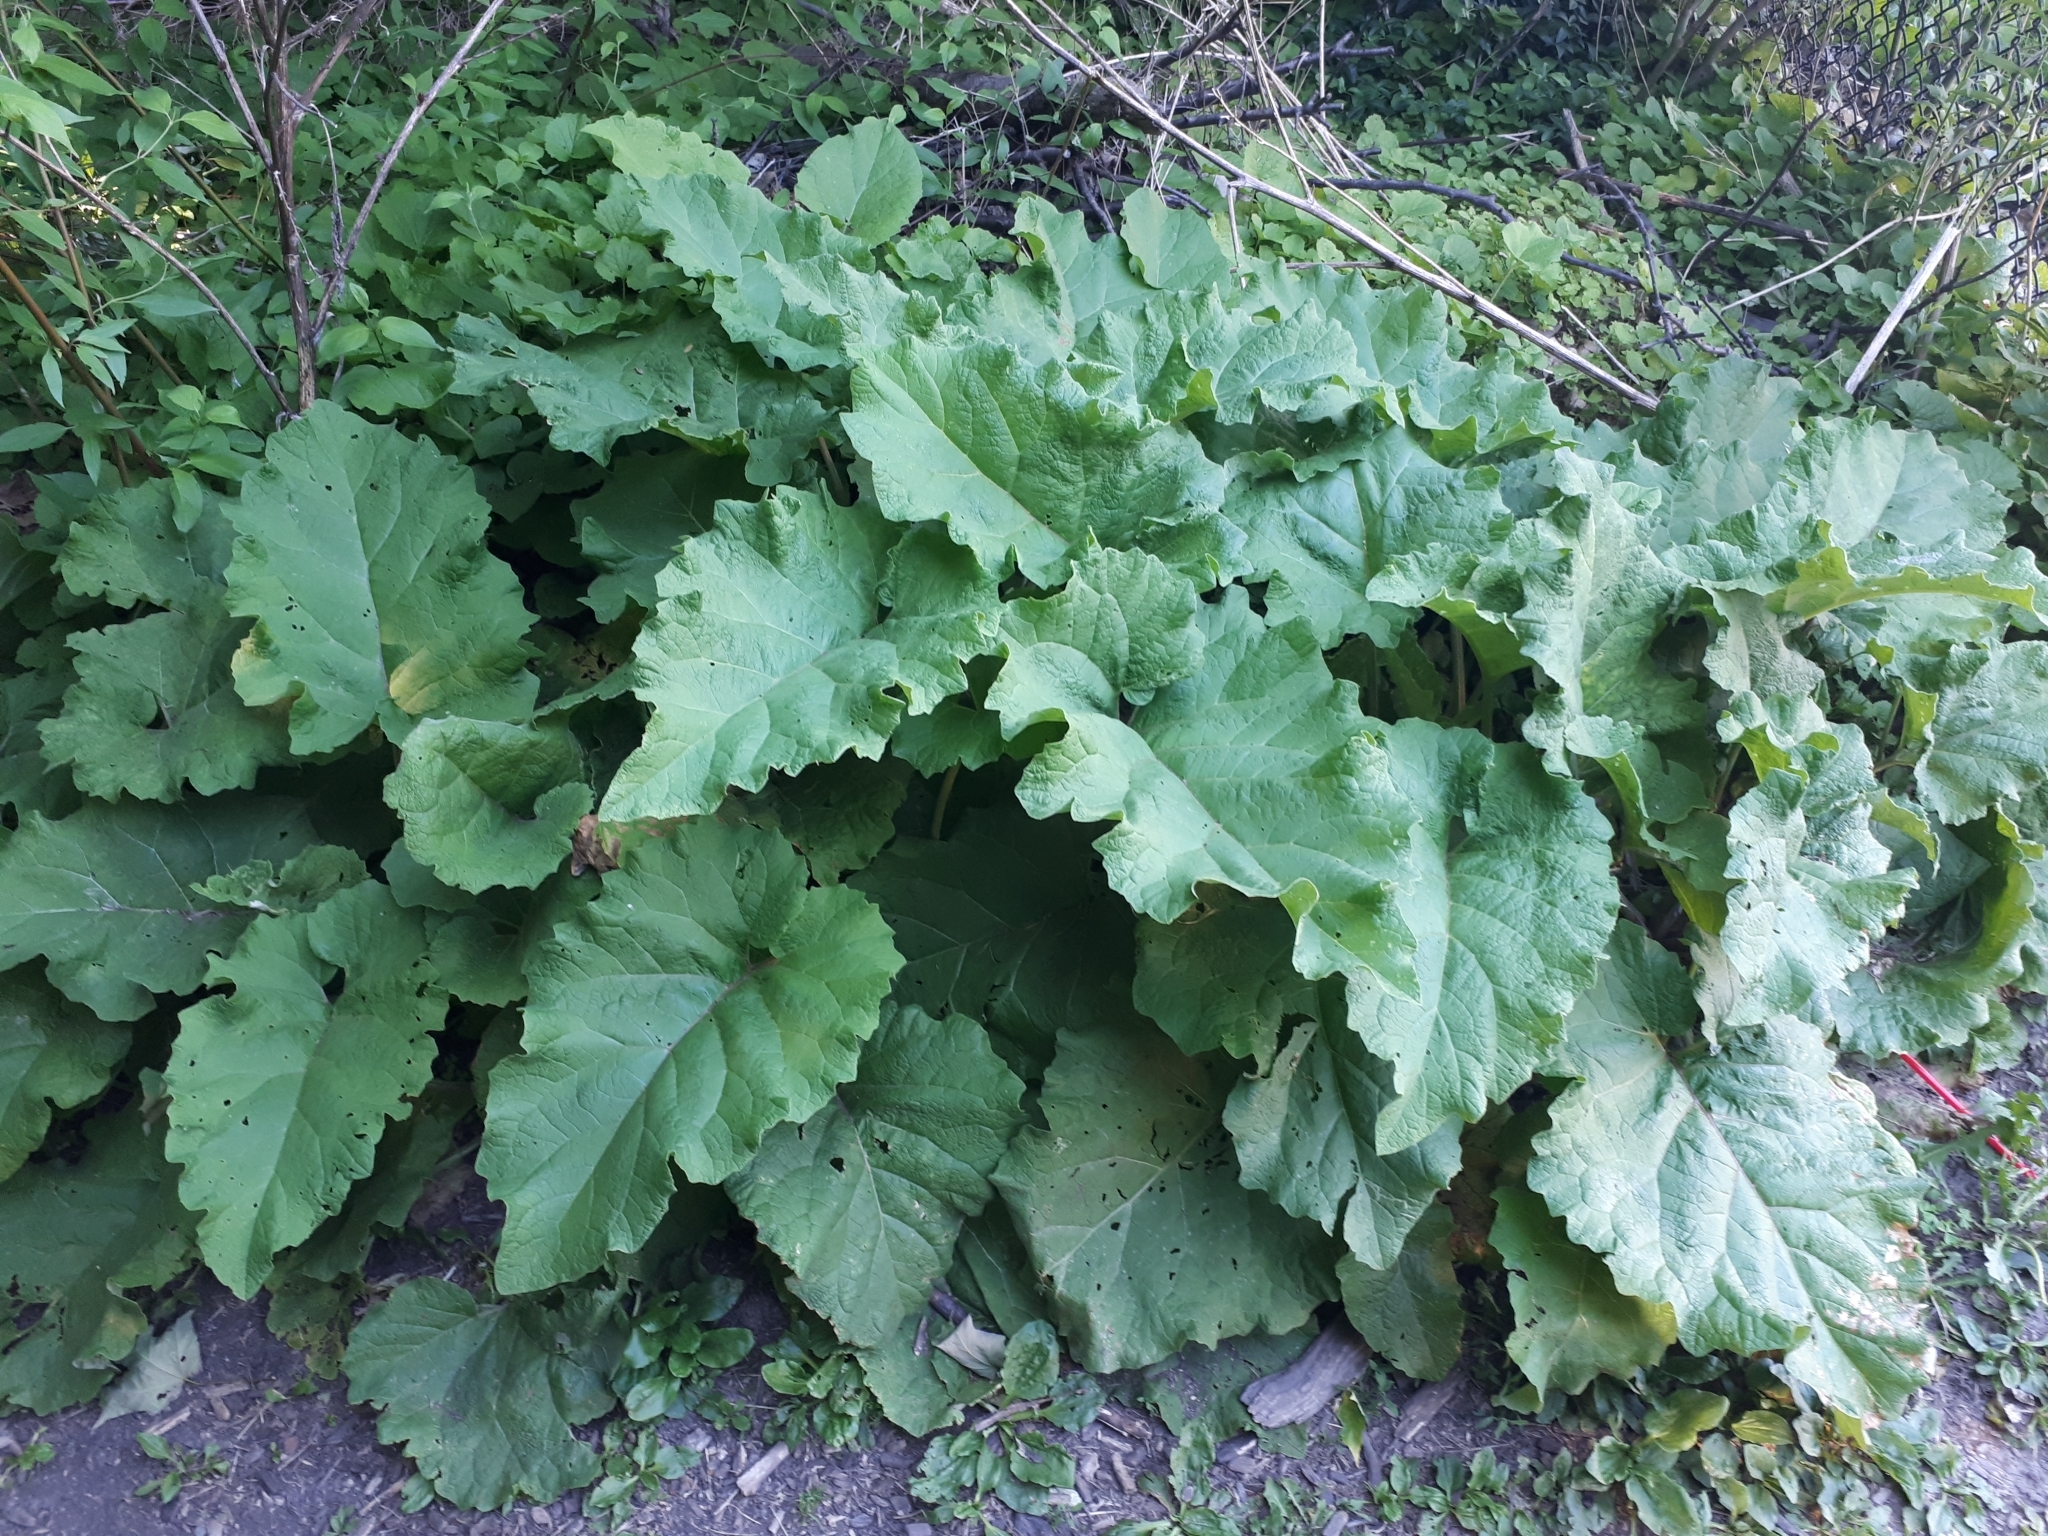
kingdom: Plantae
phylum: Tracheophyta
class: Magnoliopsida
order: Asterales
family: Asteraceae
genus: Arctium
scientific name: Arctium lappa
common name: Greater burdock
